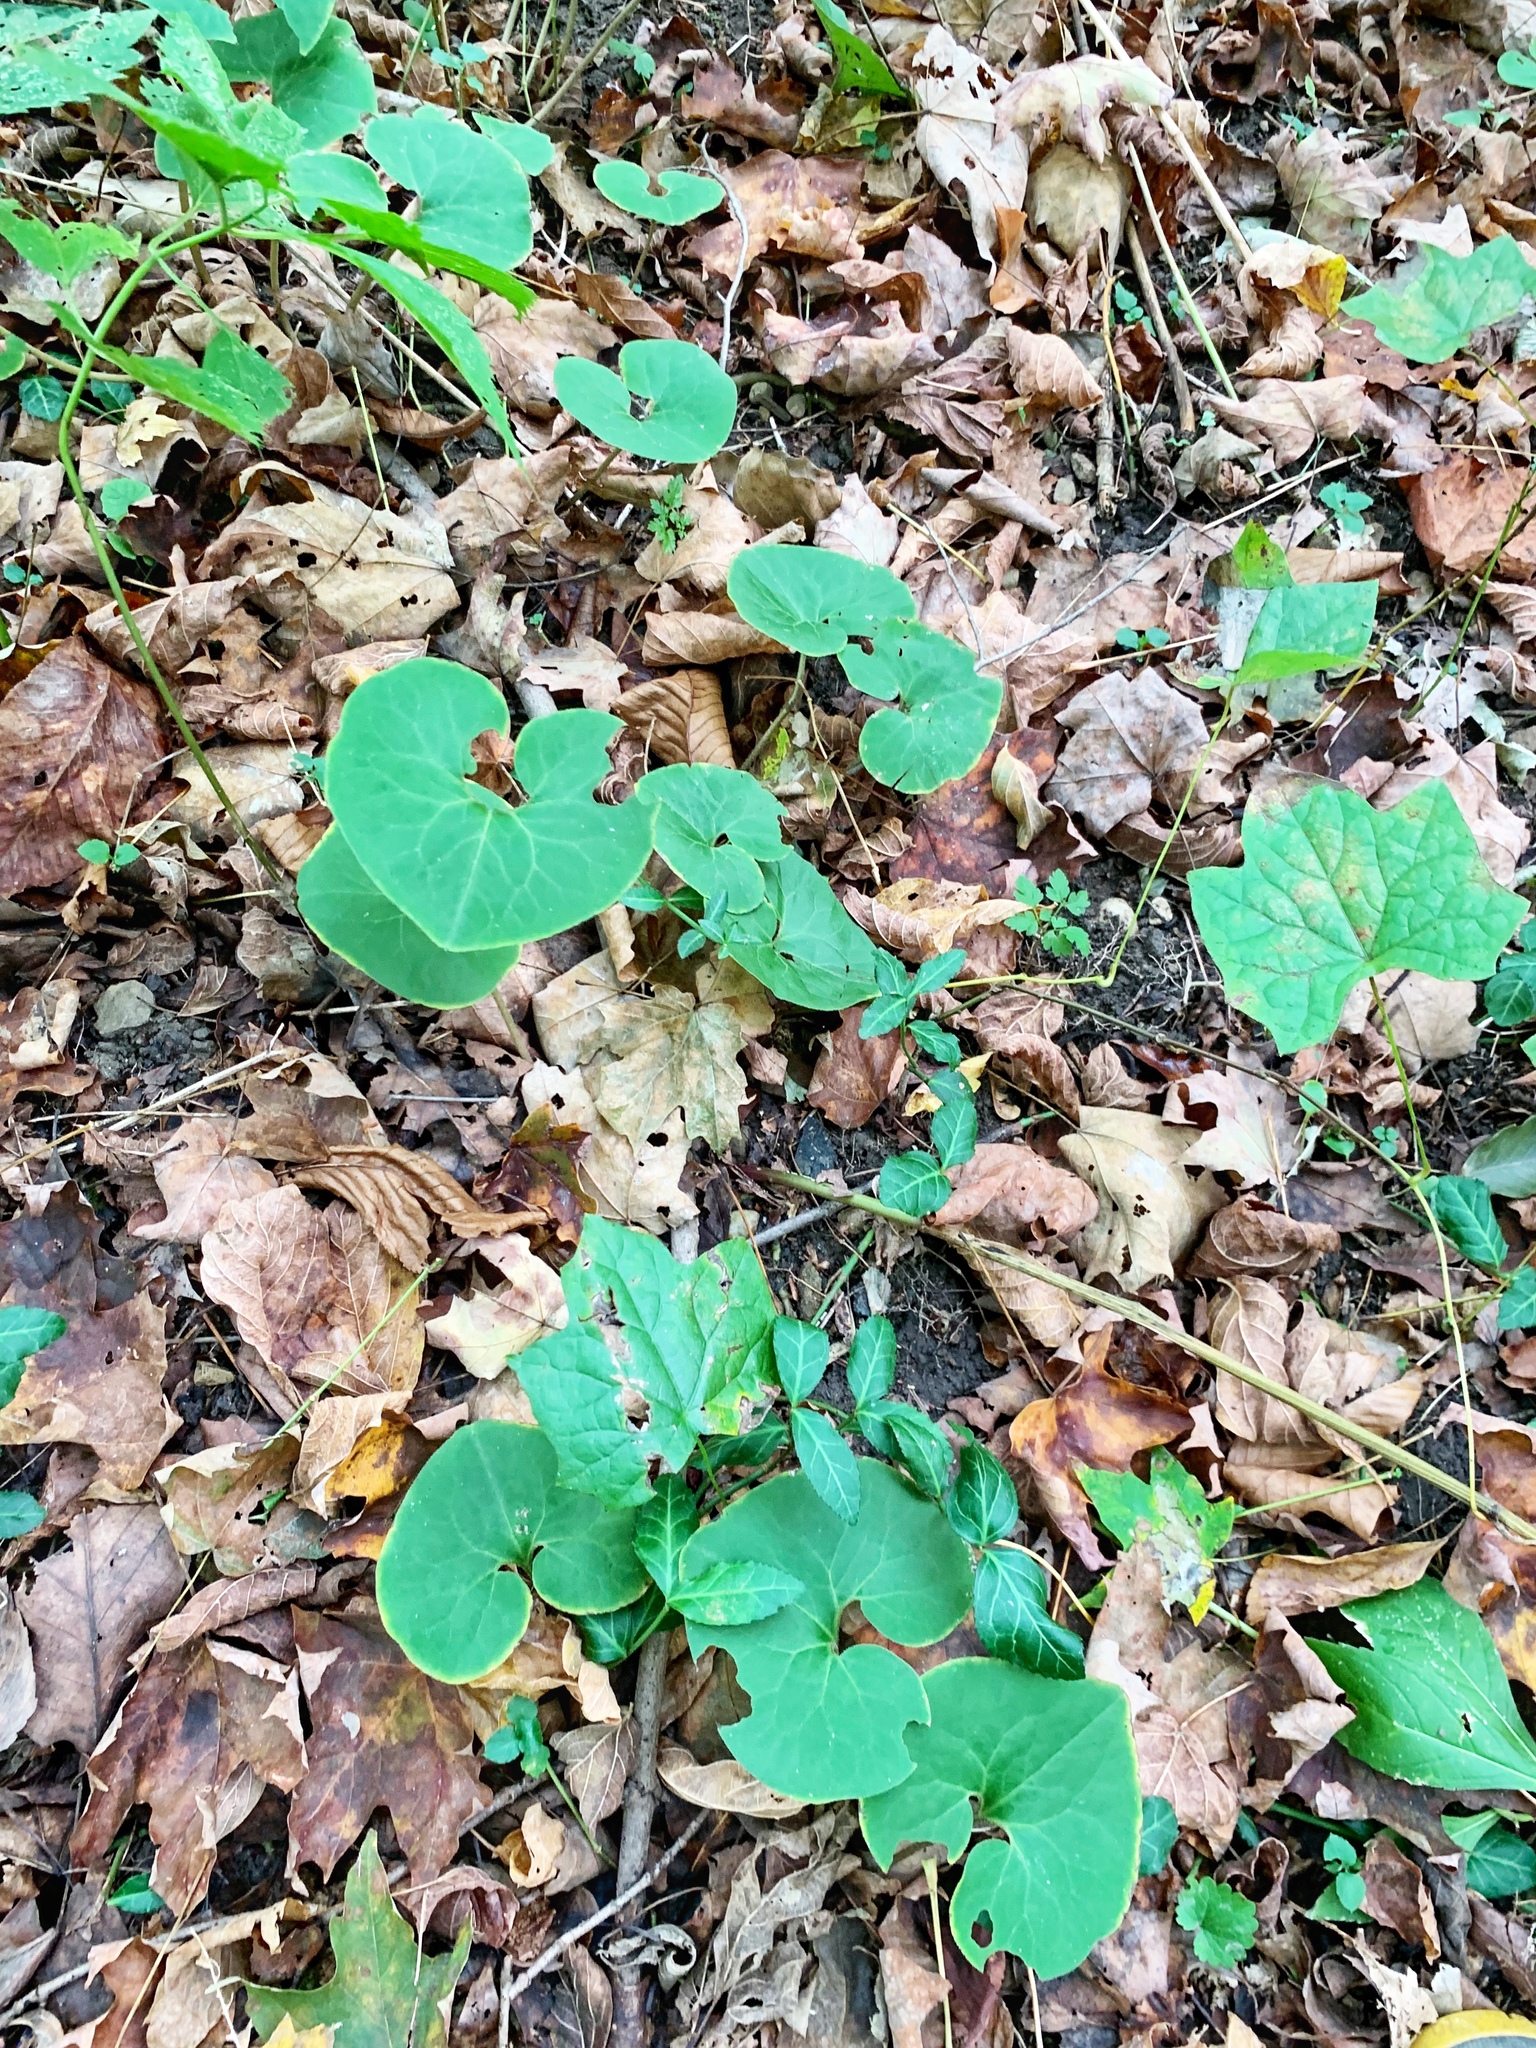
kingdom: Plantae
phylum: Tracheophyta
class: Magnoliopsida
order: Piperales
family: Aristolochiaceae
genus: Asarum
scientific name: Asarum canadense
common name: Wild ginger
